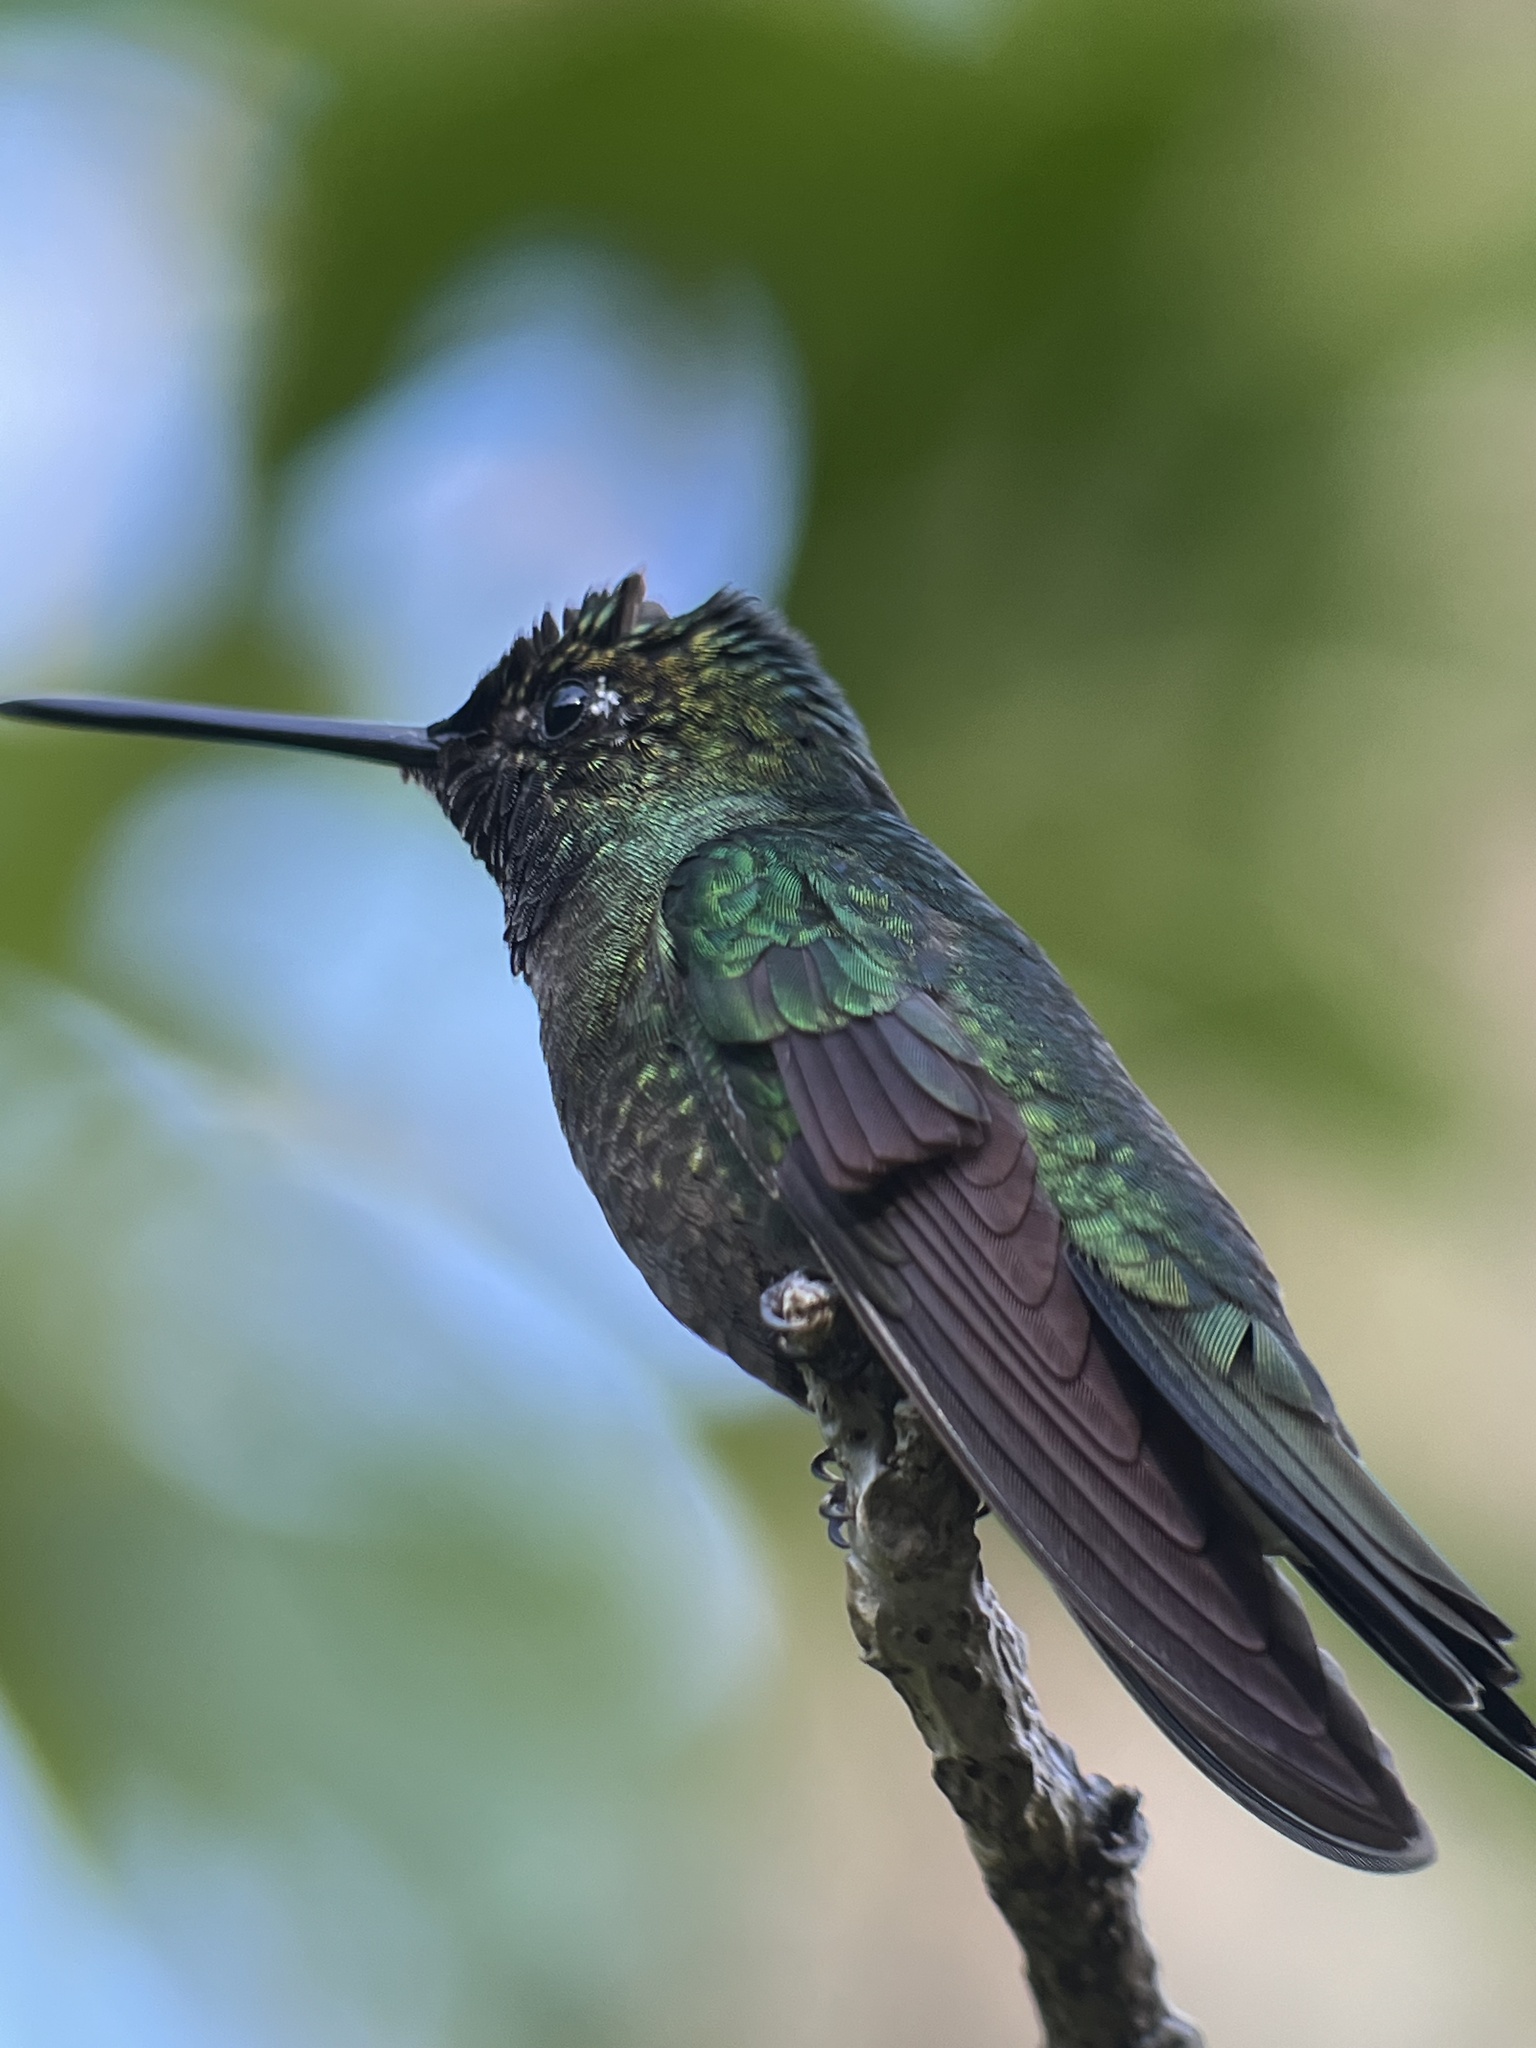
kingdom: Animalia
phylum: Chordata
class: Aves
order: Apodiformes
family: Trochilidae
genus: Eugenes
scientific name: Eugenes spectabilis
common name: Talamanca hummingbird
